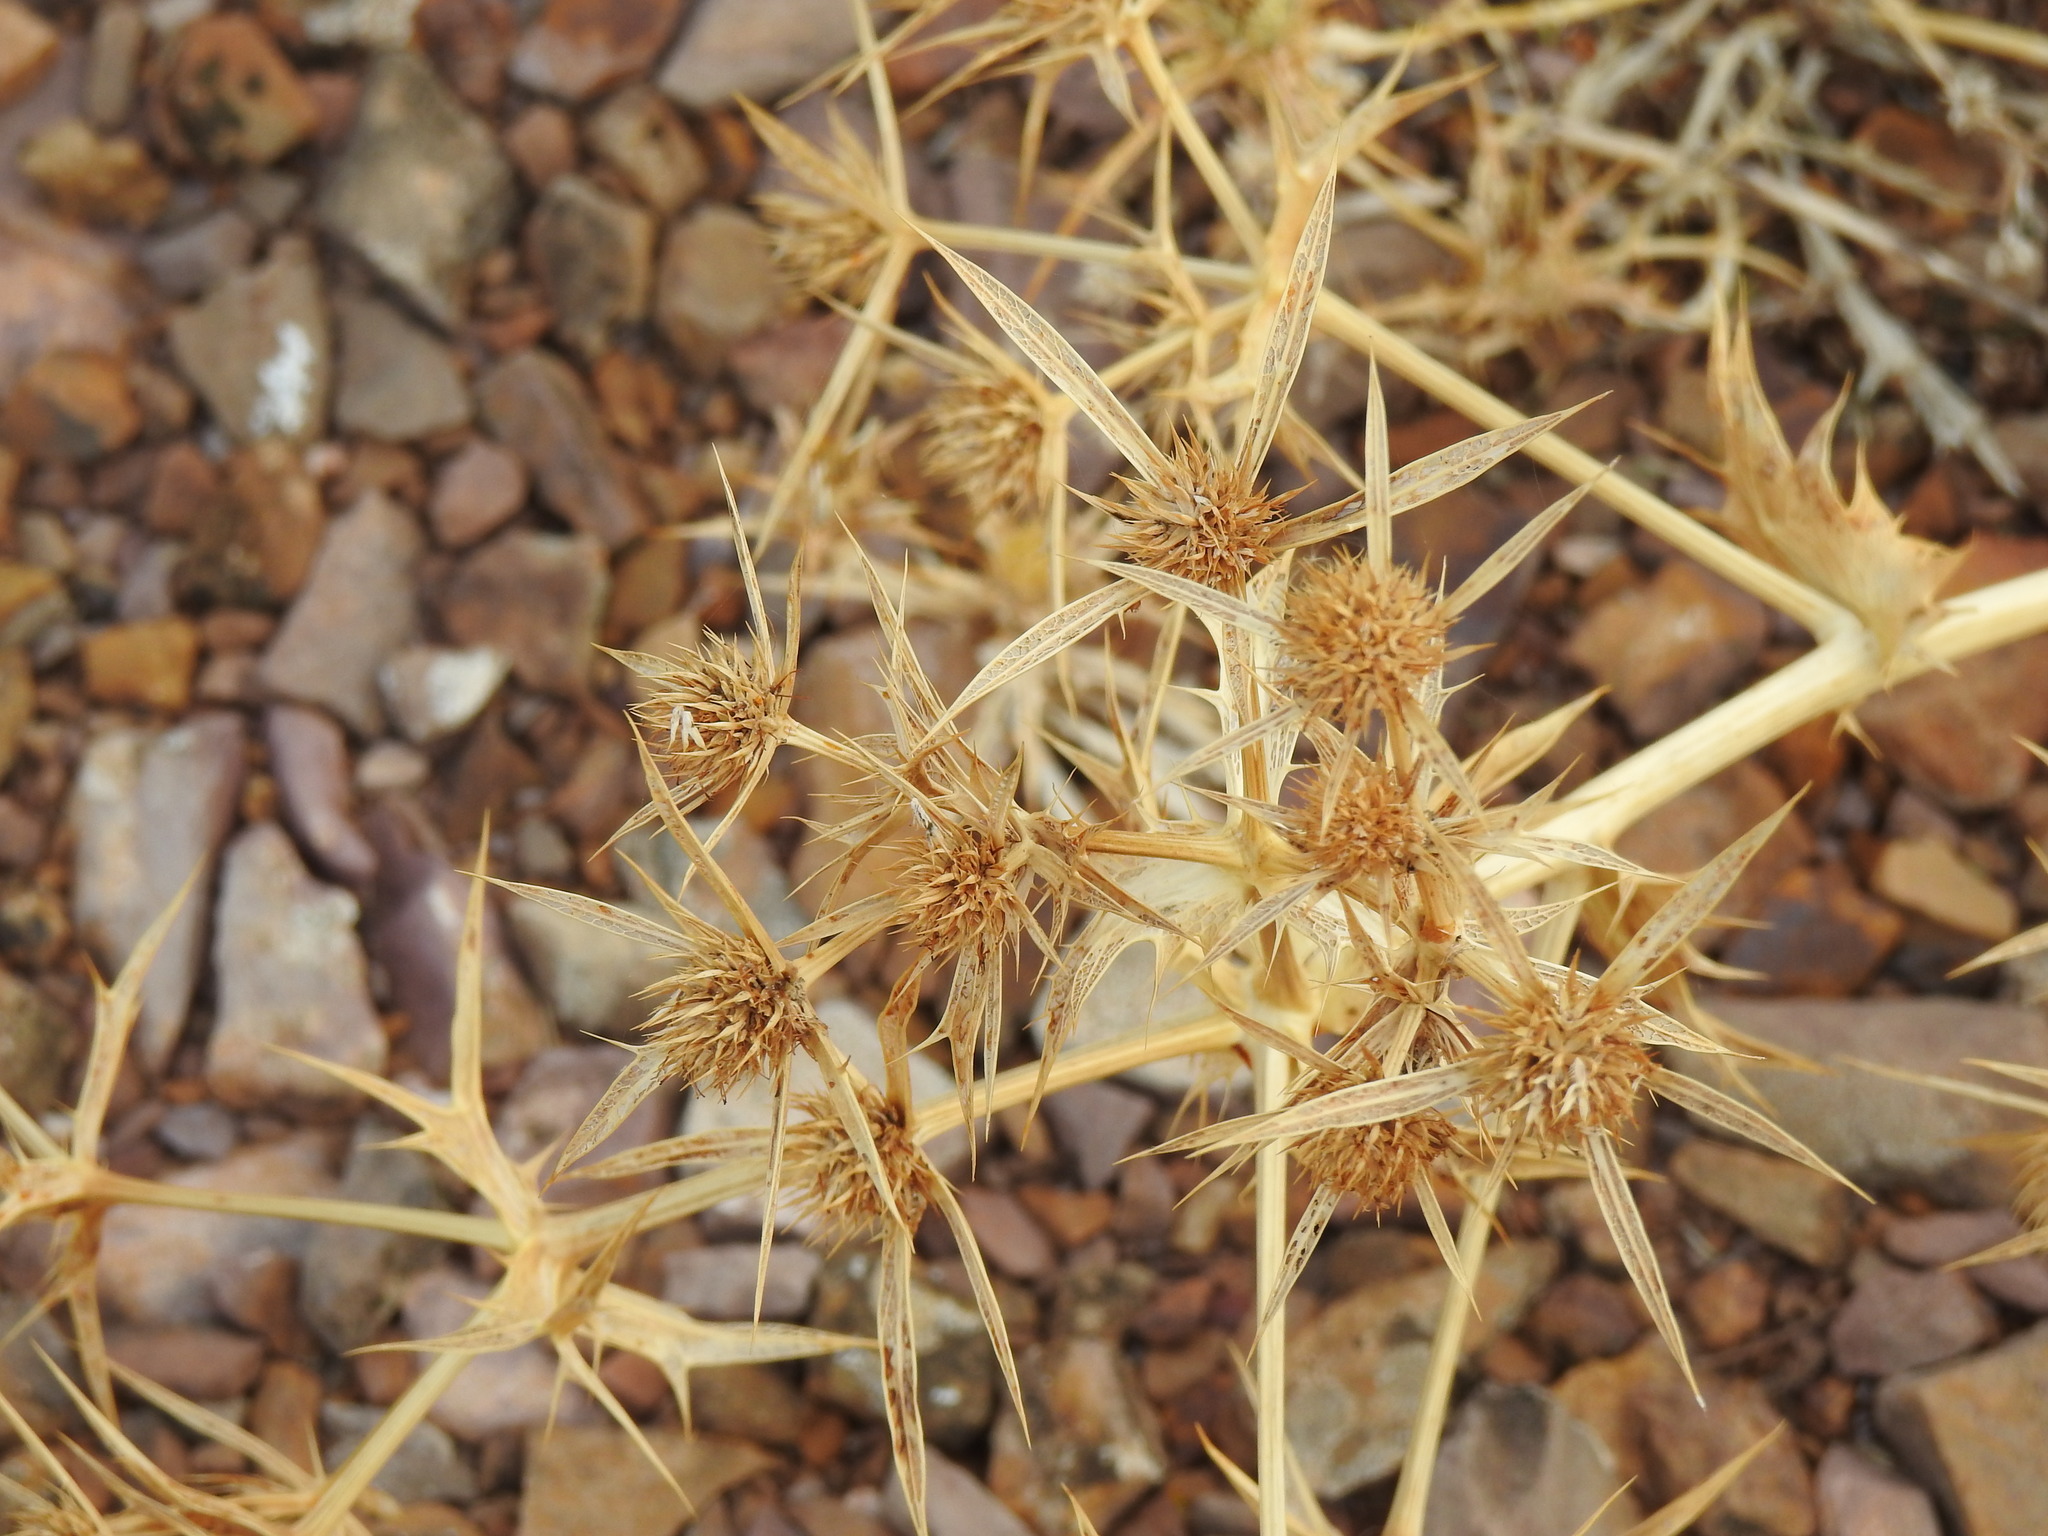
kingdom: Plantae
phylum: Tracheophyta
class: Magnoliopsida
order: Apiales
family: Apiaceae
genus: Eryngium
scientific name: Eryngium campestre
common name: Field eryngo
